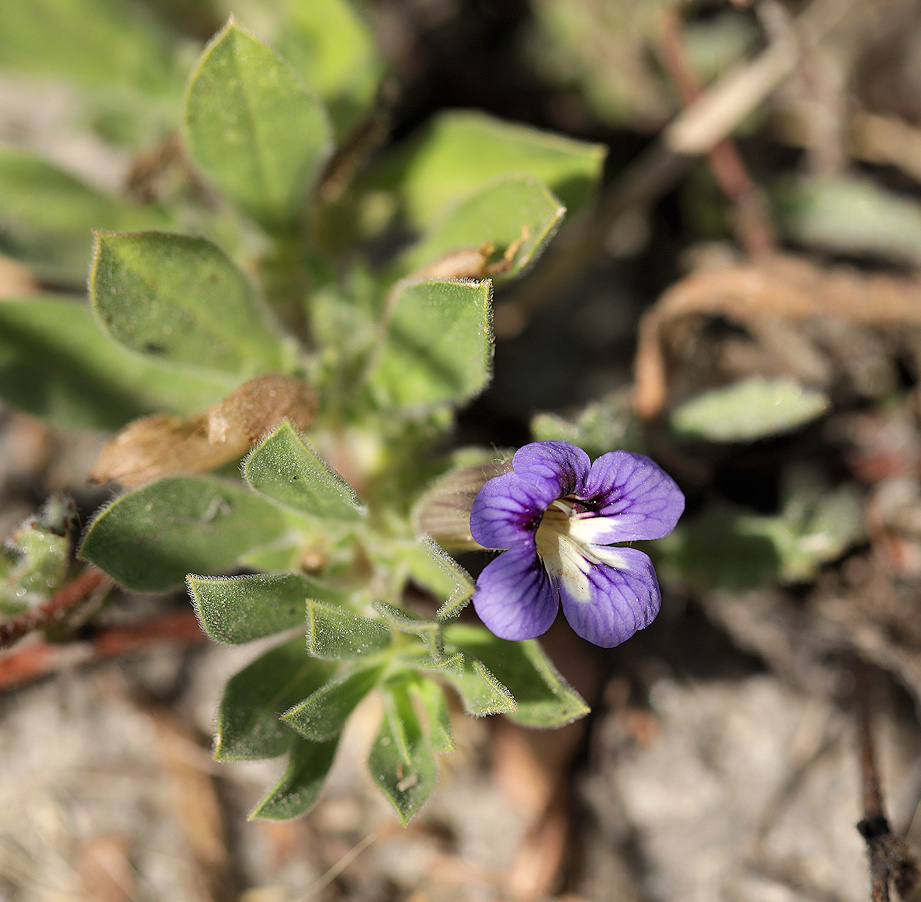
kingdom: Plantae
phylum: Tracheophyta
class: Magnoliopsida
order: Lamiales
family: Scrophulariaceae
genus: Aptosimum
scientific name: Aptosimum procumbens
